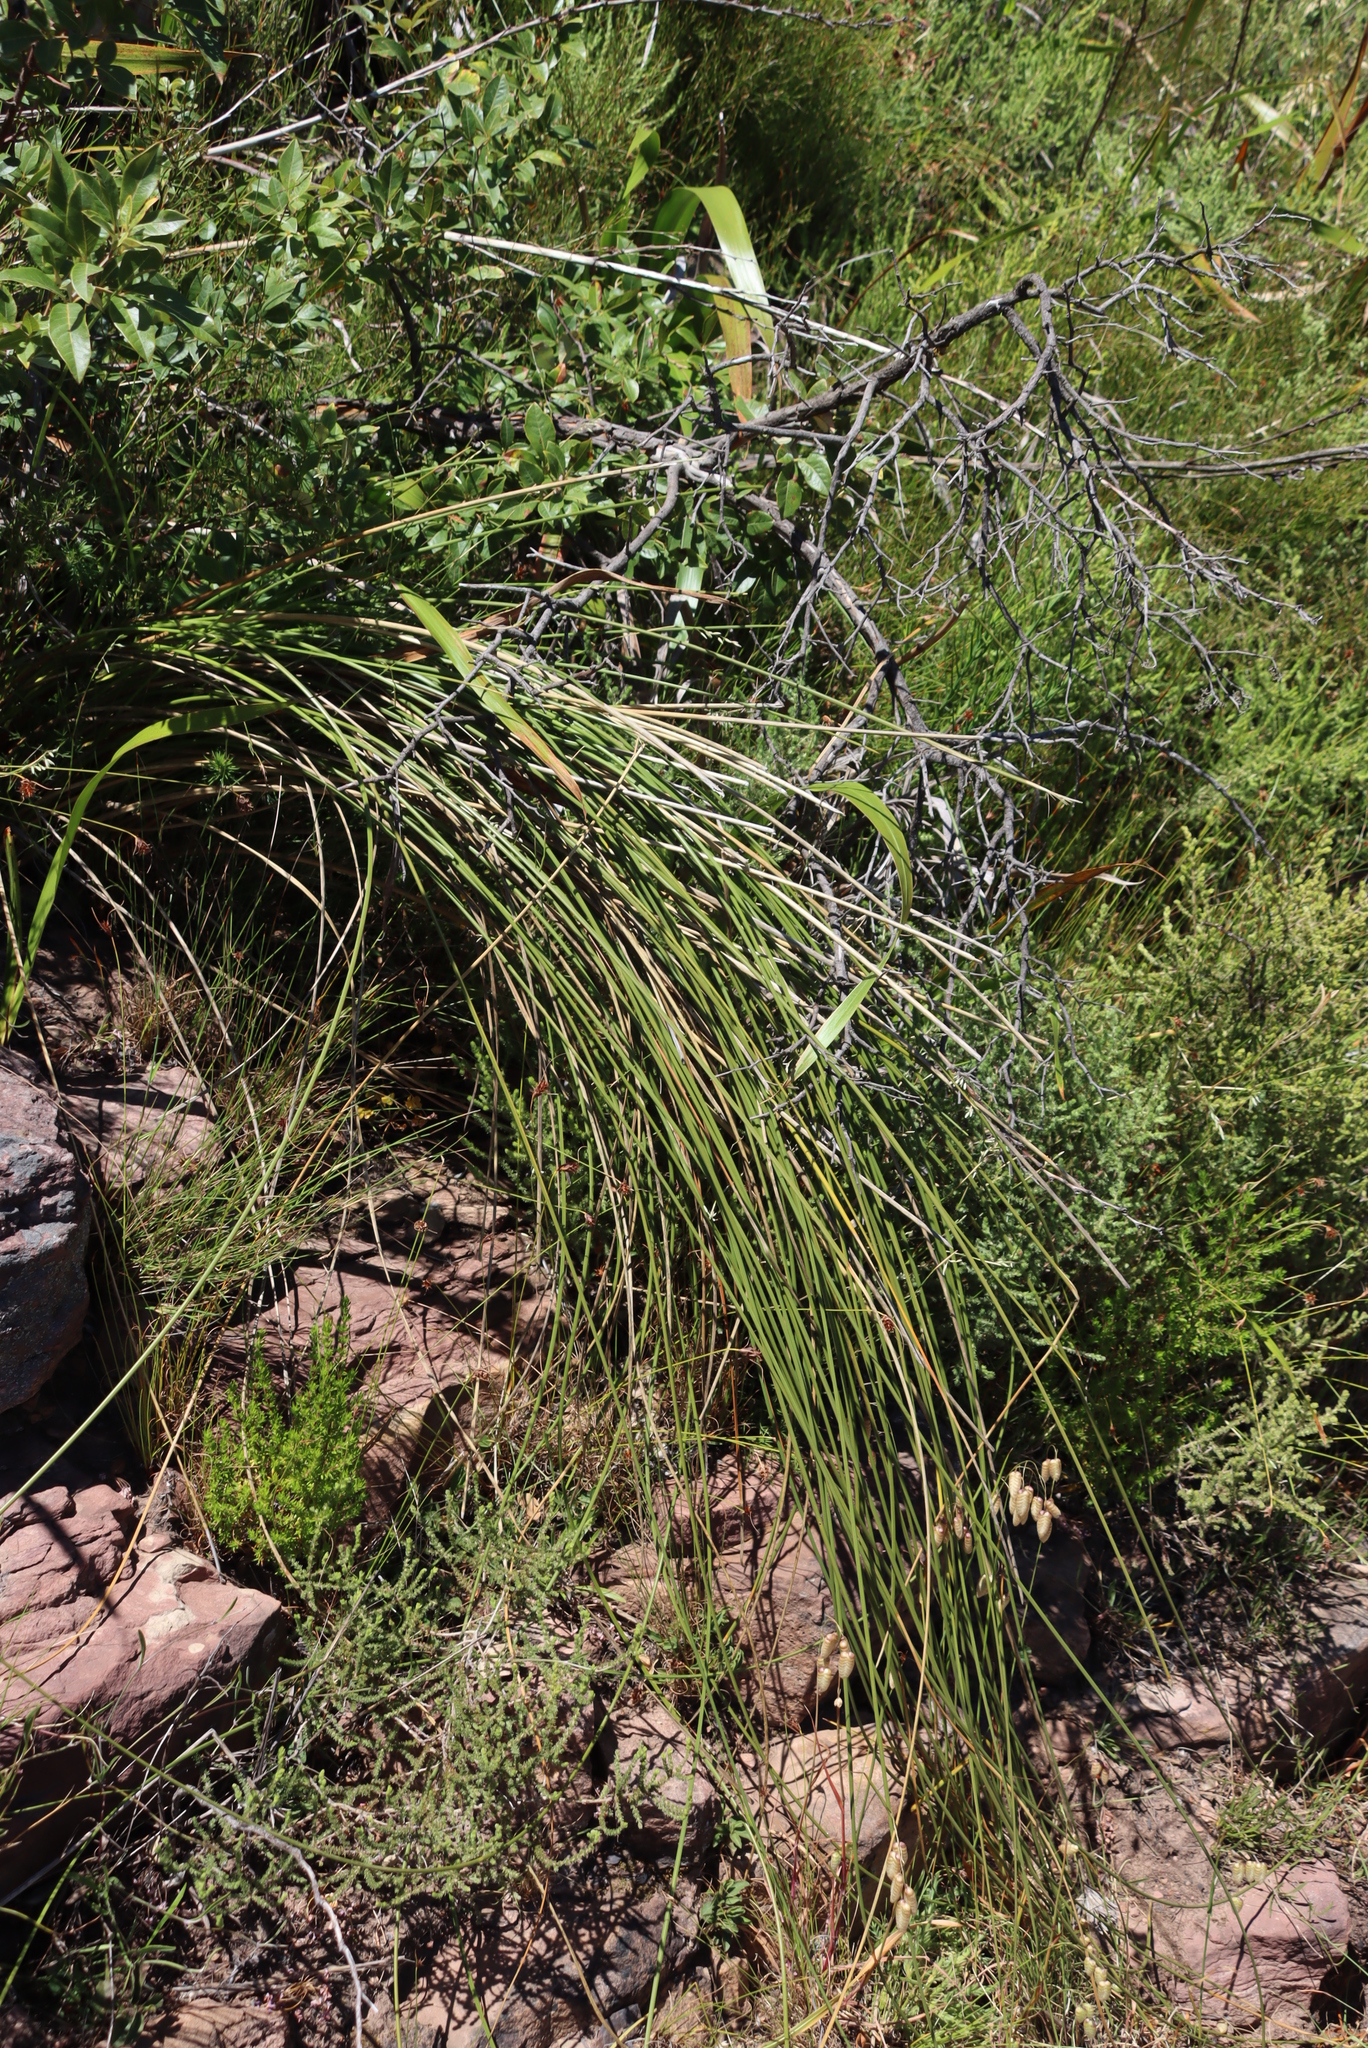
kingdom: Plantae
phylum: Tracheophyta
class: Liliopsida
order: Asparagales
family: Iridaceae
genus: Bobartia
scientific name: Bobartia indica
